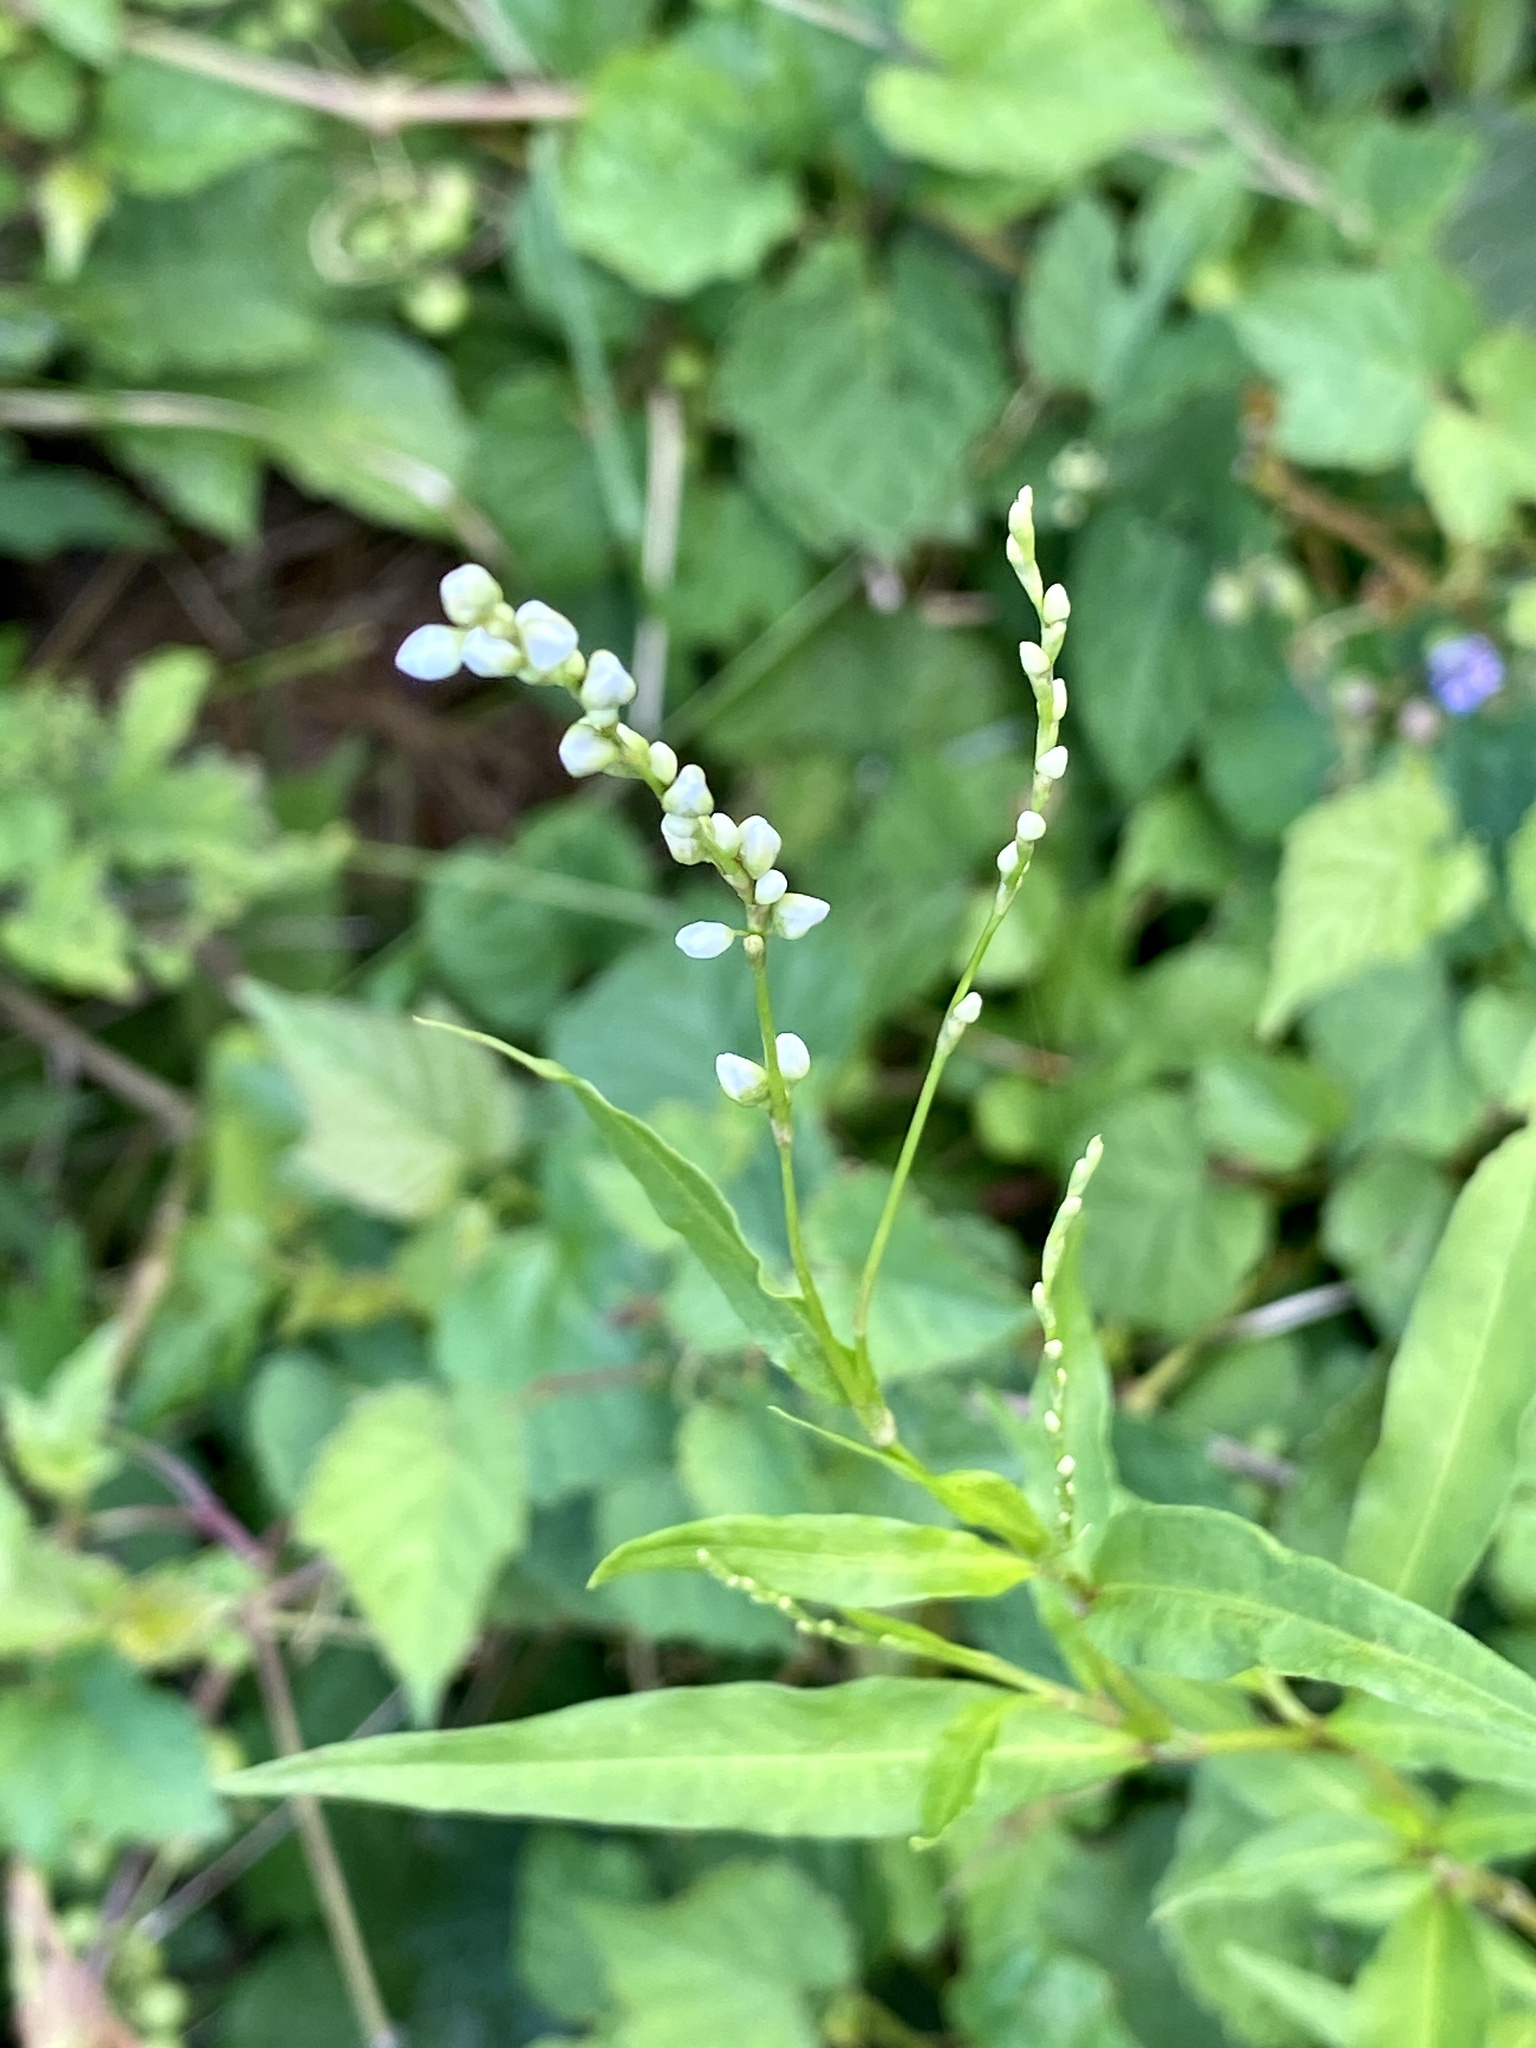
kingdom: Plantae
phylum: Tracheophyta
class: Magnoliopsida
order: Caryophyllales
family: Polygonaceae
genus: Persicaria
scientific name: Persicaria punctata
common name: Dotted smartweed
